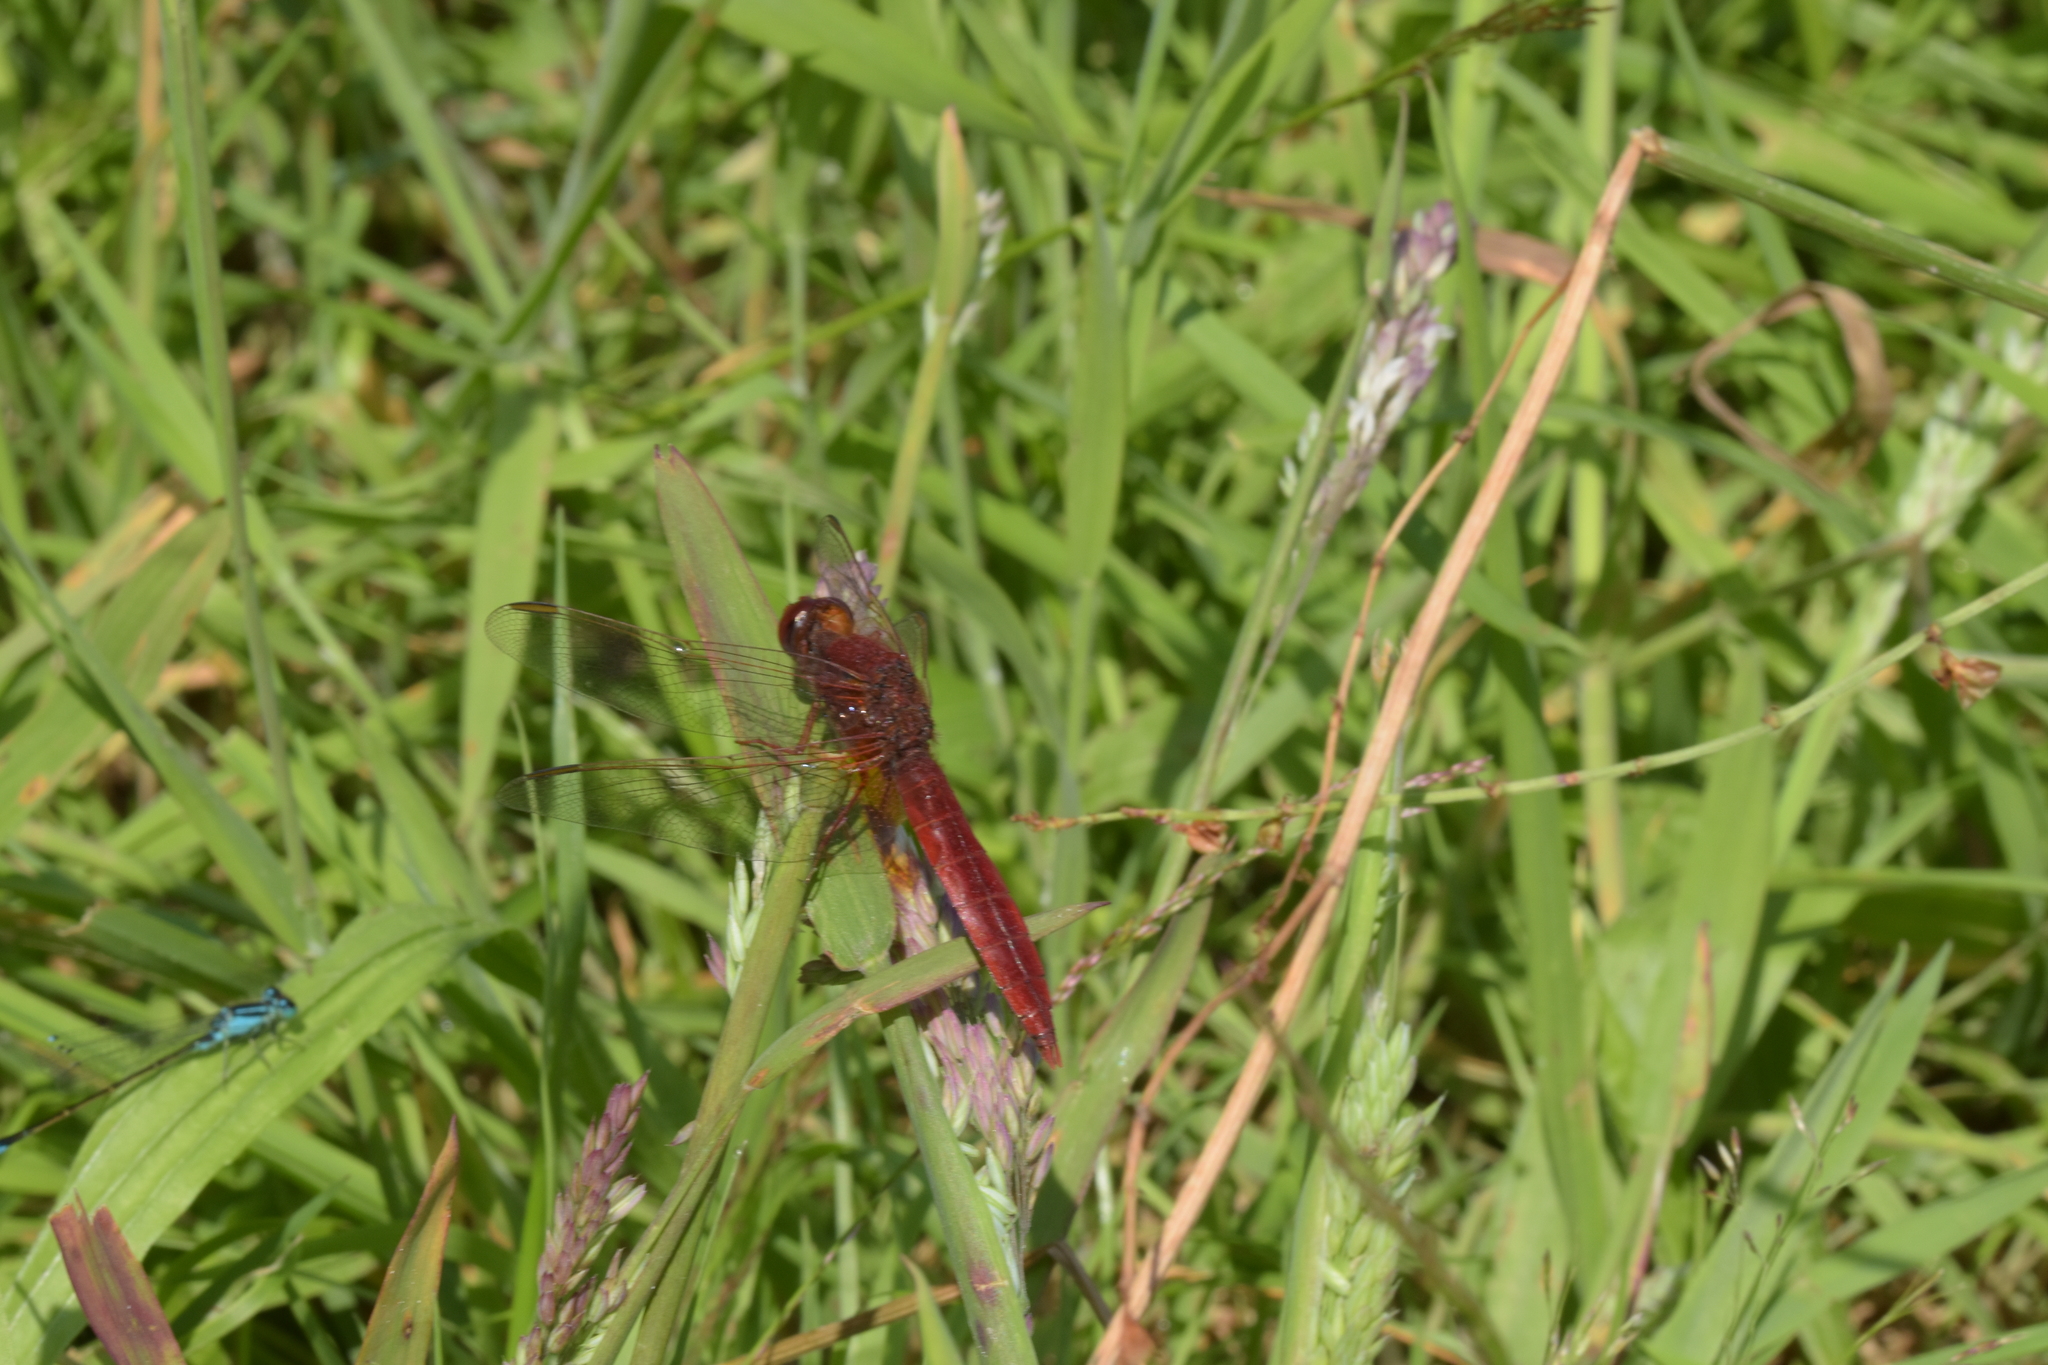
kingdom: Animalia
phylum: Arthropoda
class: Insecta
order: Odonata
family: Libellulidae
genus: Crocothemis
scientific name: Crocothemis erythraea
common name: Scarlet dragonfly
